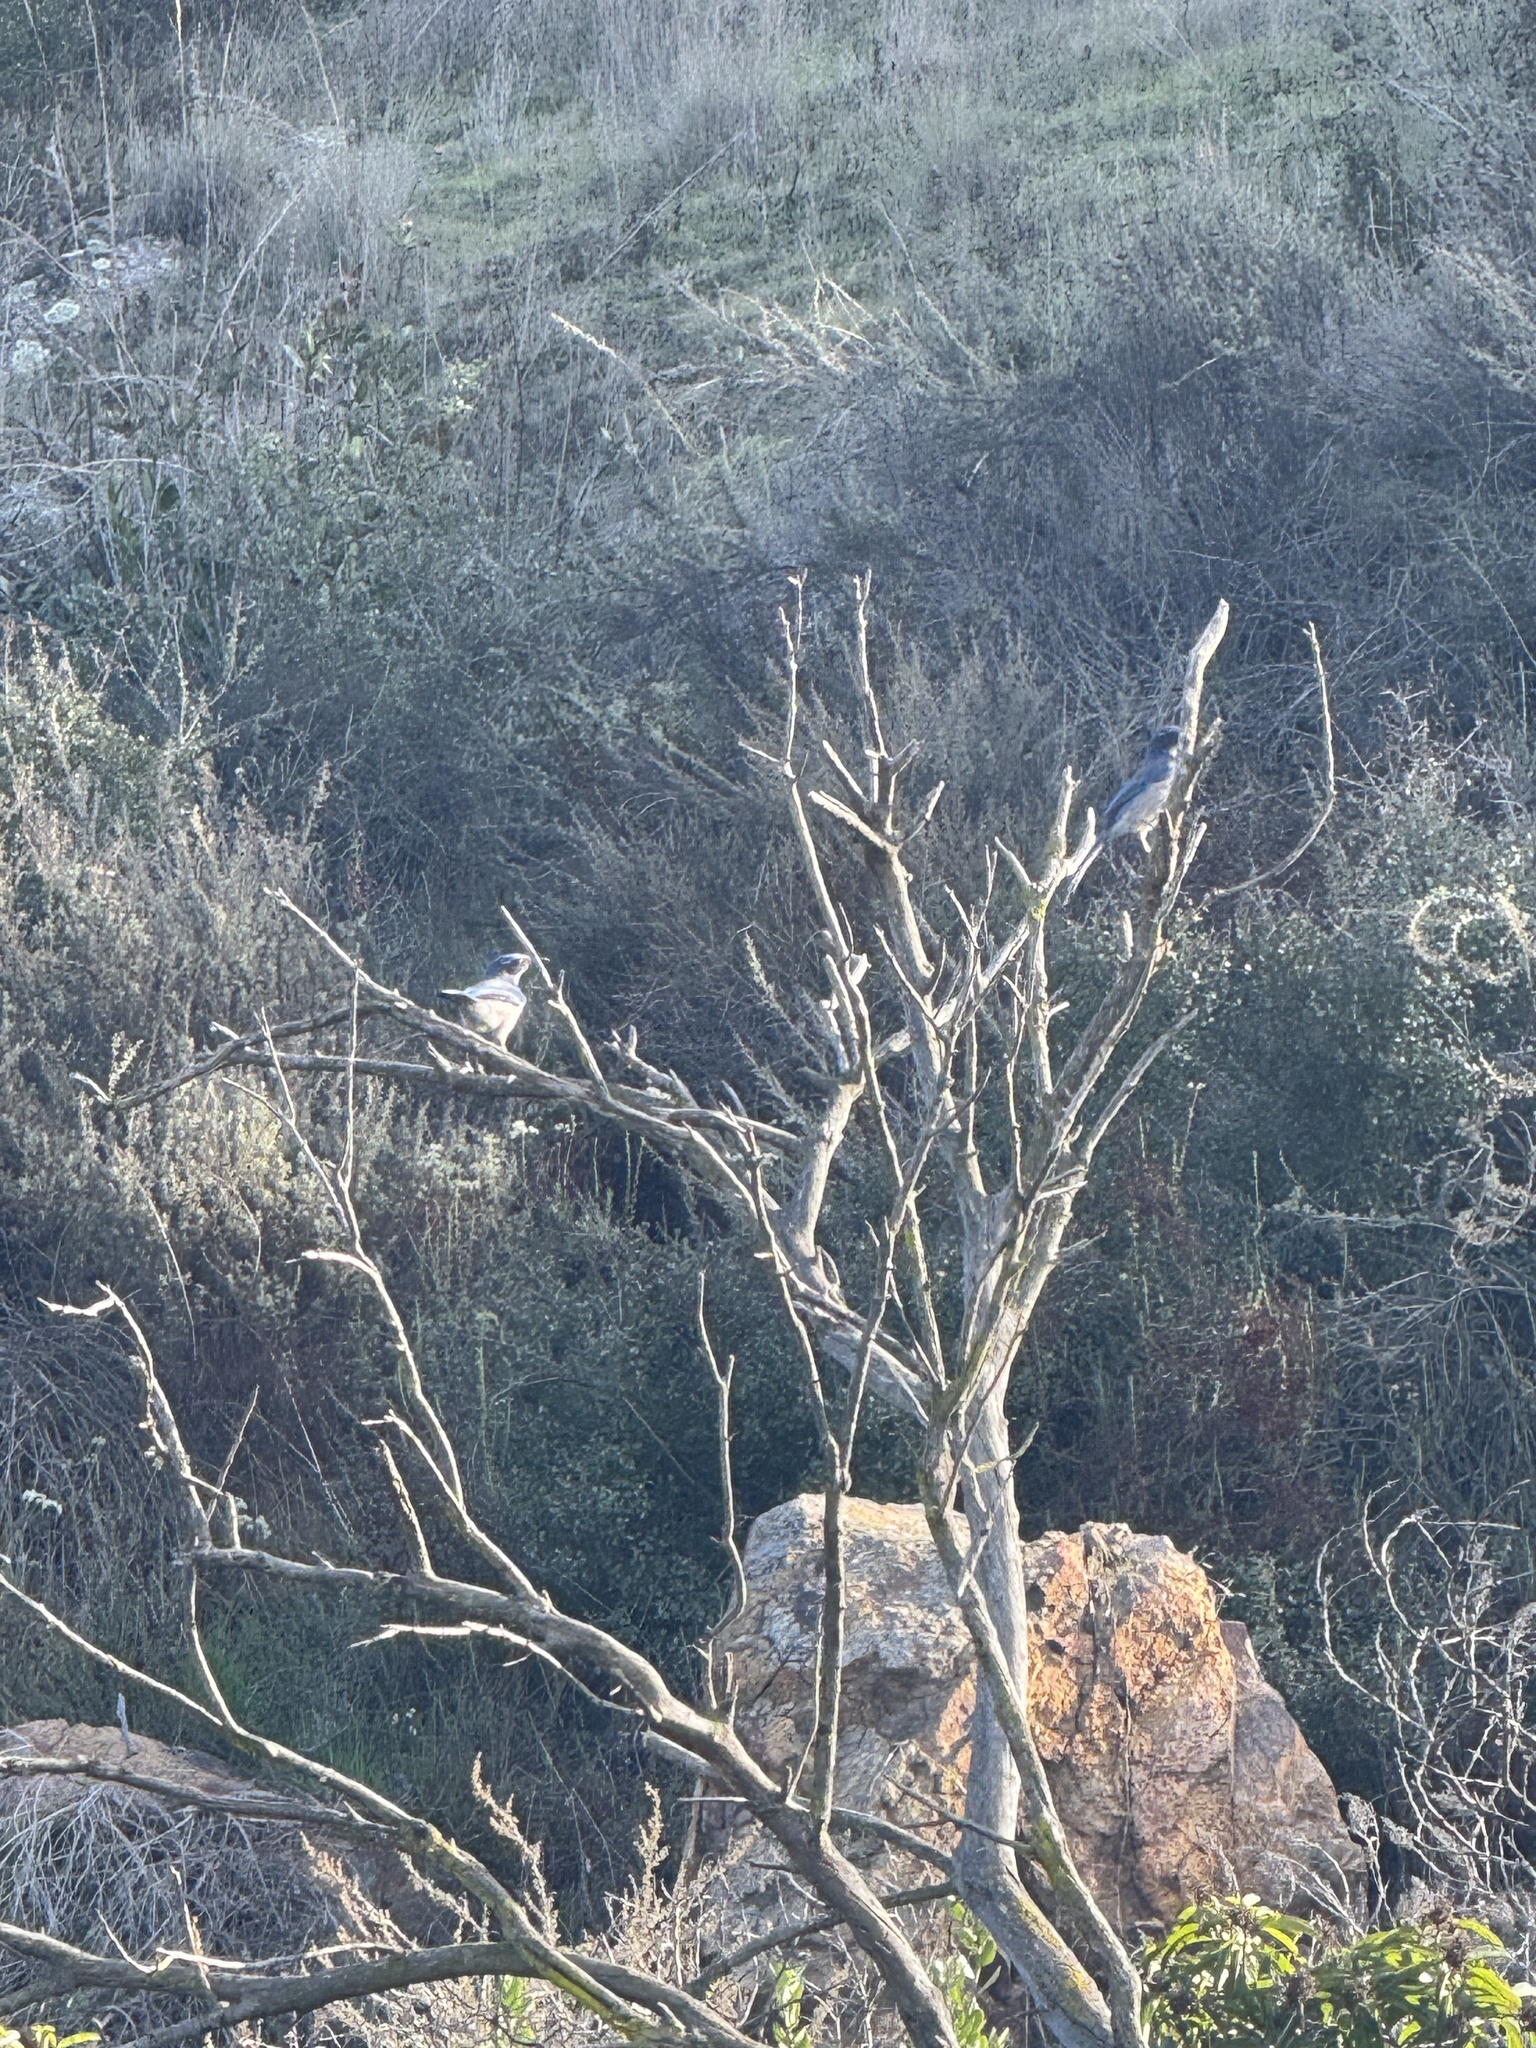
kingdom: Animalia
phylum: Chordata
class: Aves
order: Passeriformes
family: Corvidae
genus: Aphelocoma
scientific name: Aphelocoma californica
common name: California scrub-jay
